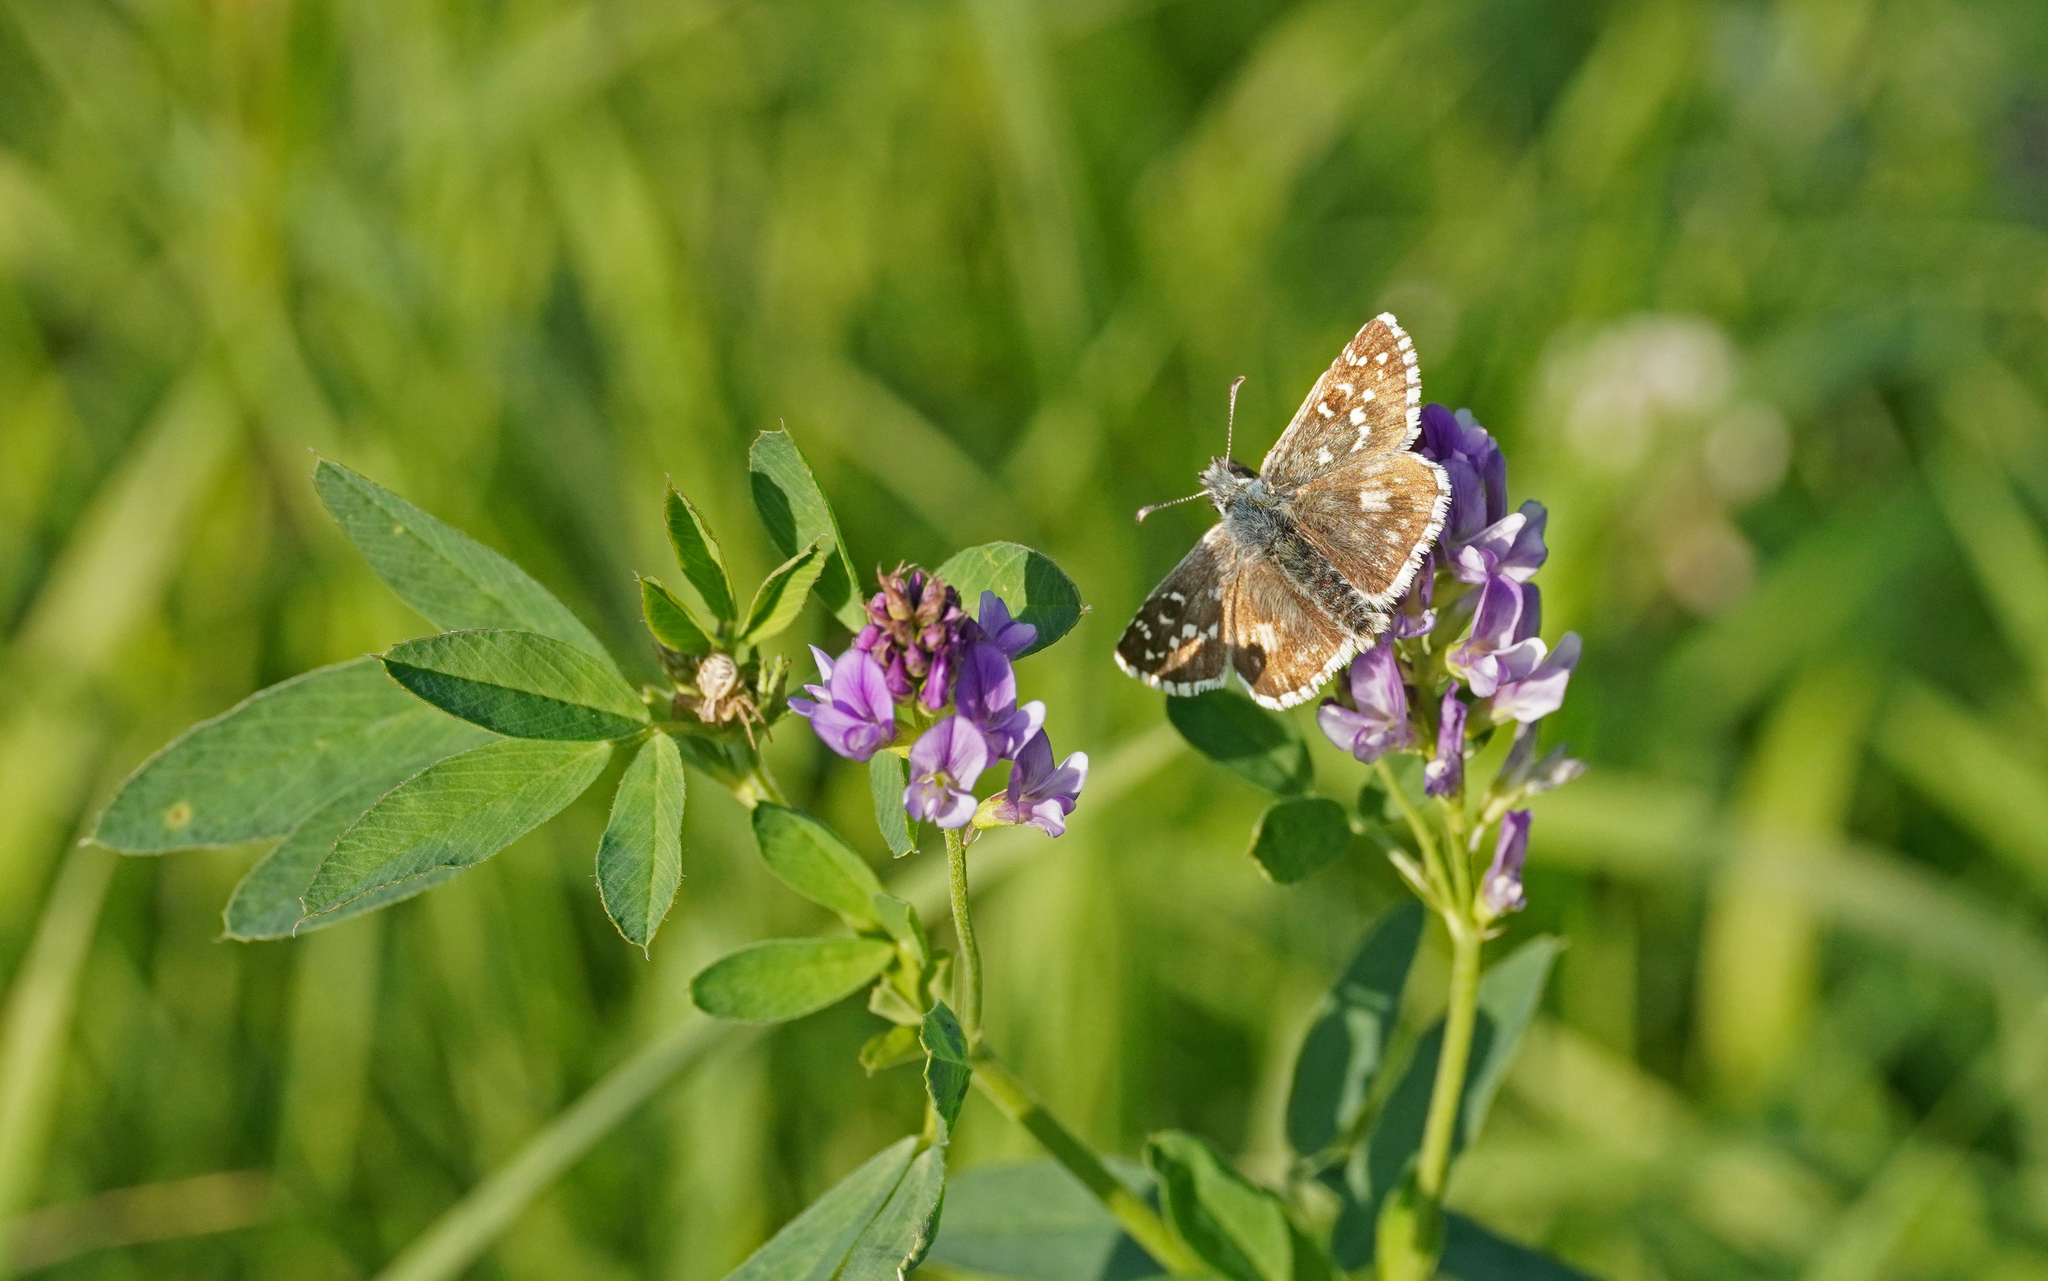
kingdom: Animalia
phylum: Arthropoda
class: Insecta
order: Lepidoptera
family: Hesperiidae
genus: Pyrgus
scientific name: Pyrgus armoricanus
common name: Oberthür's grizzled skipper
